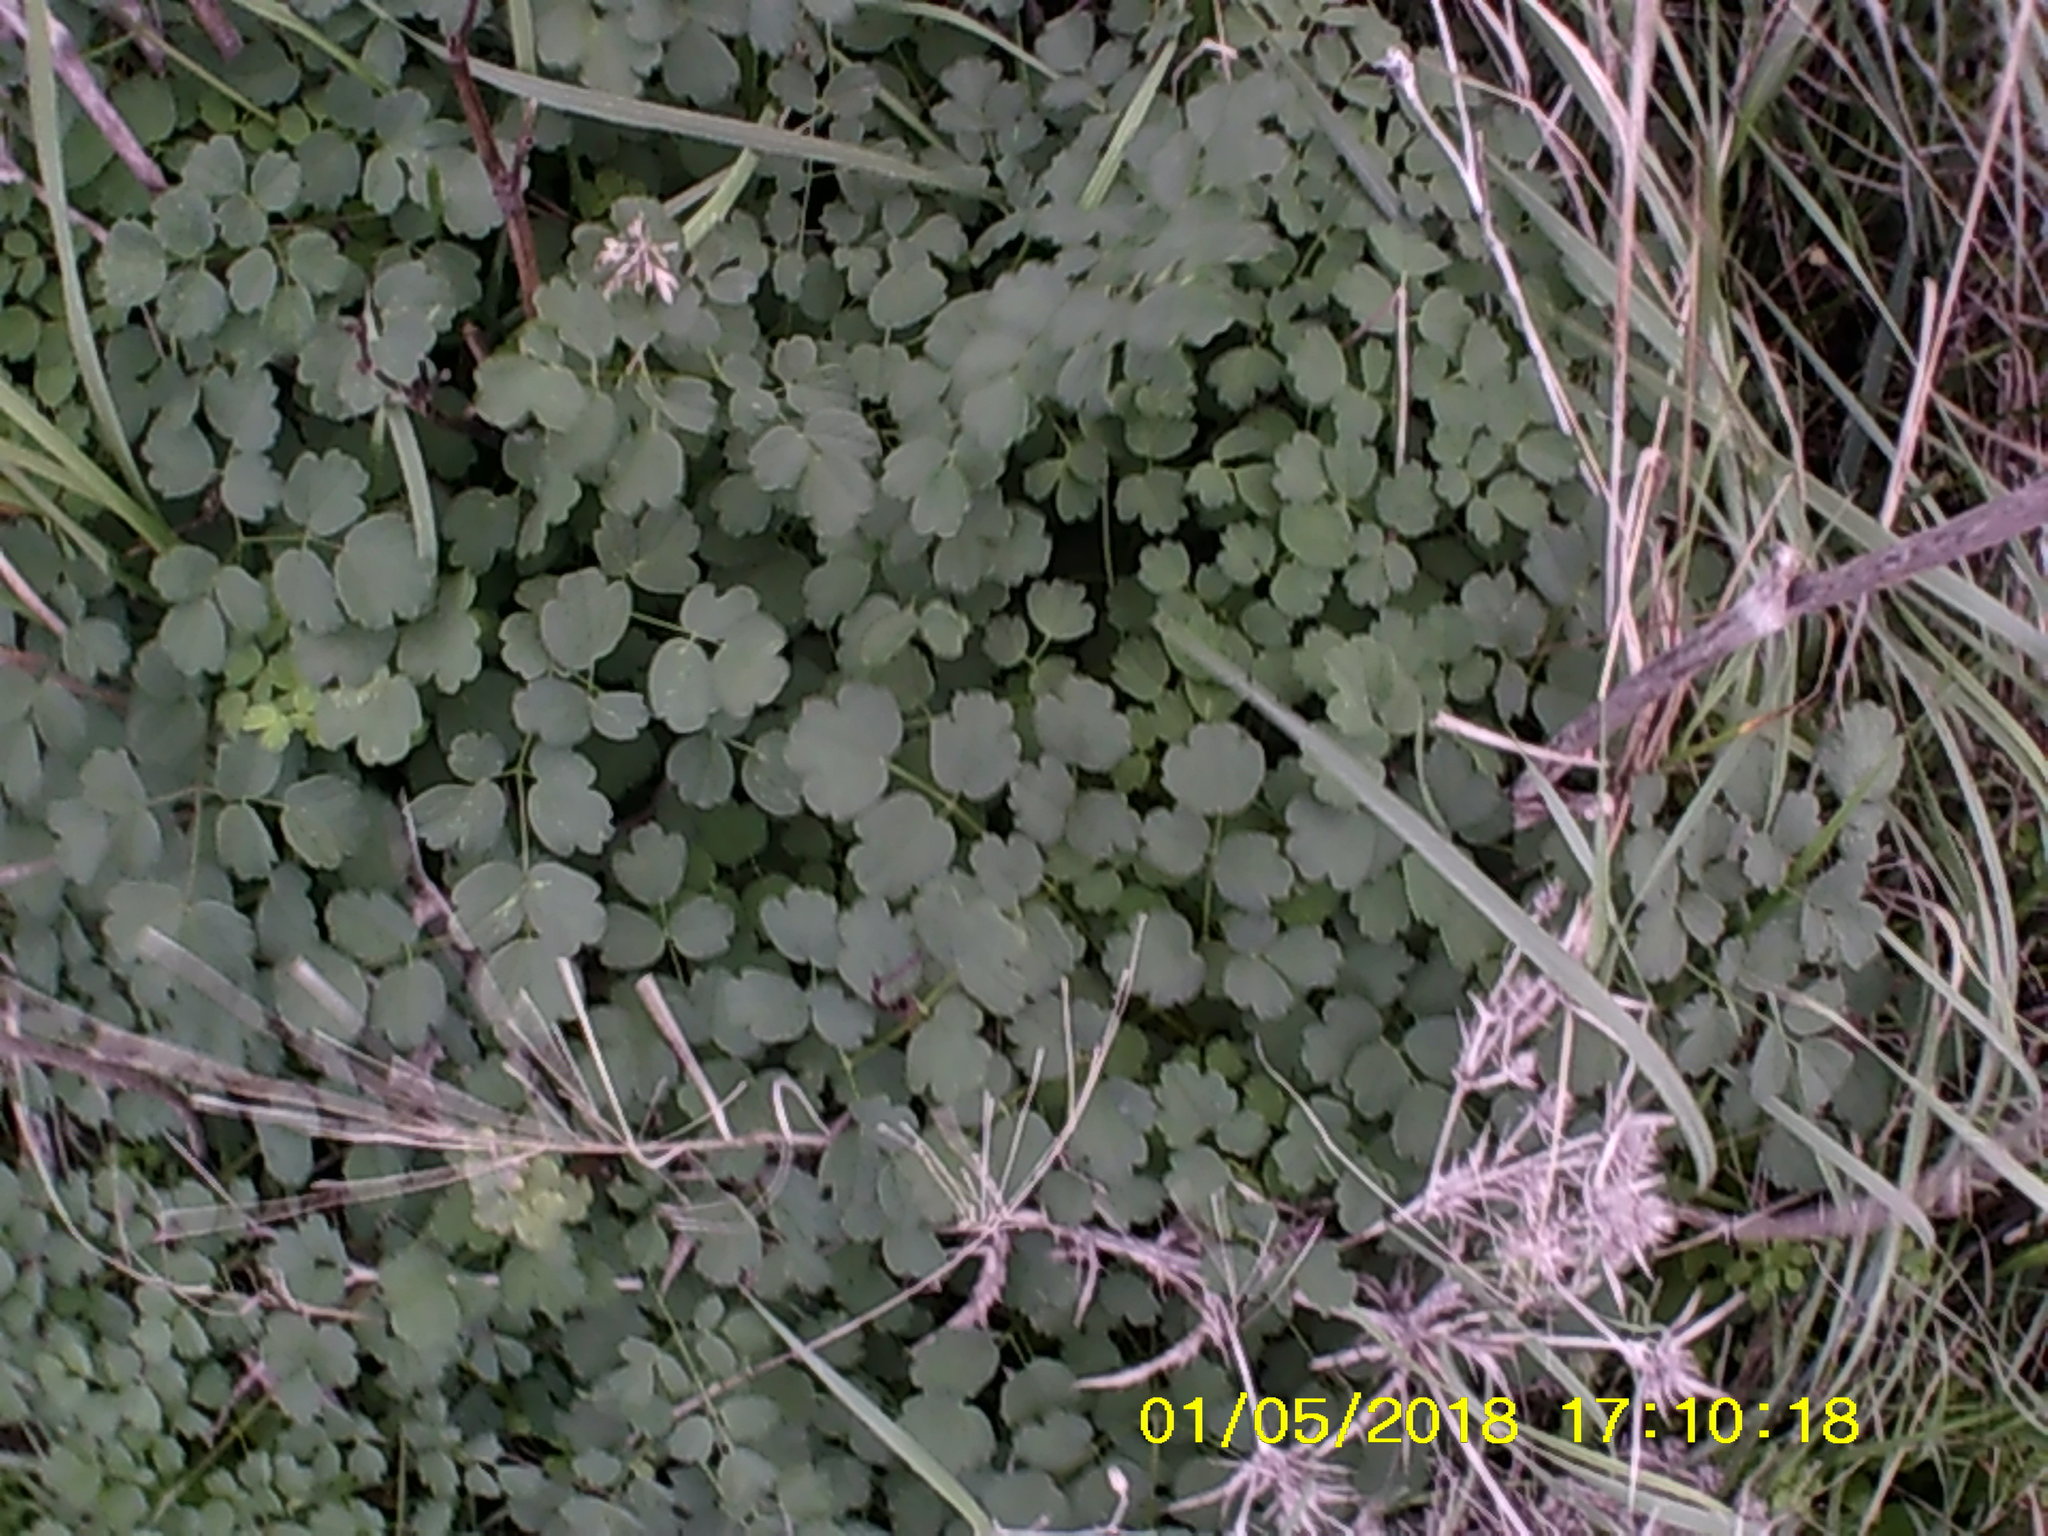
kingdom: Plantae
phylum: Tracheophyta
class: Magnoliopsida
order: Ranunculales
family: Ranunculaceae
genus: Thalictrum
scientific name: Thalictrum minus
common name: Lesser meadow-rue
